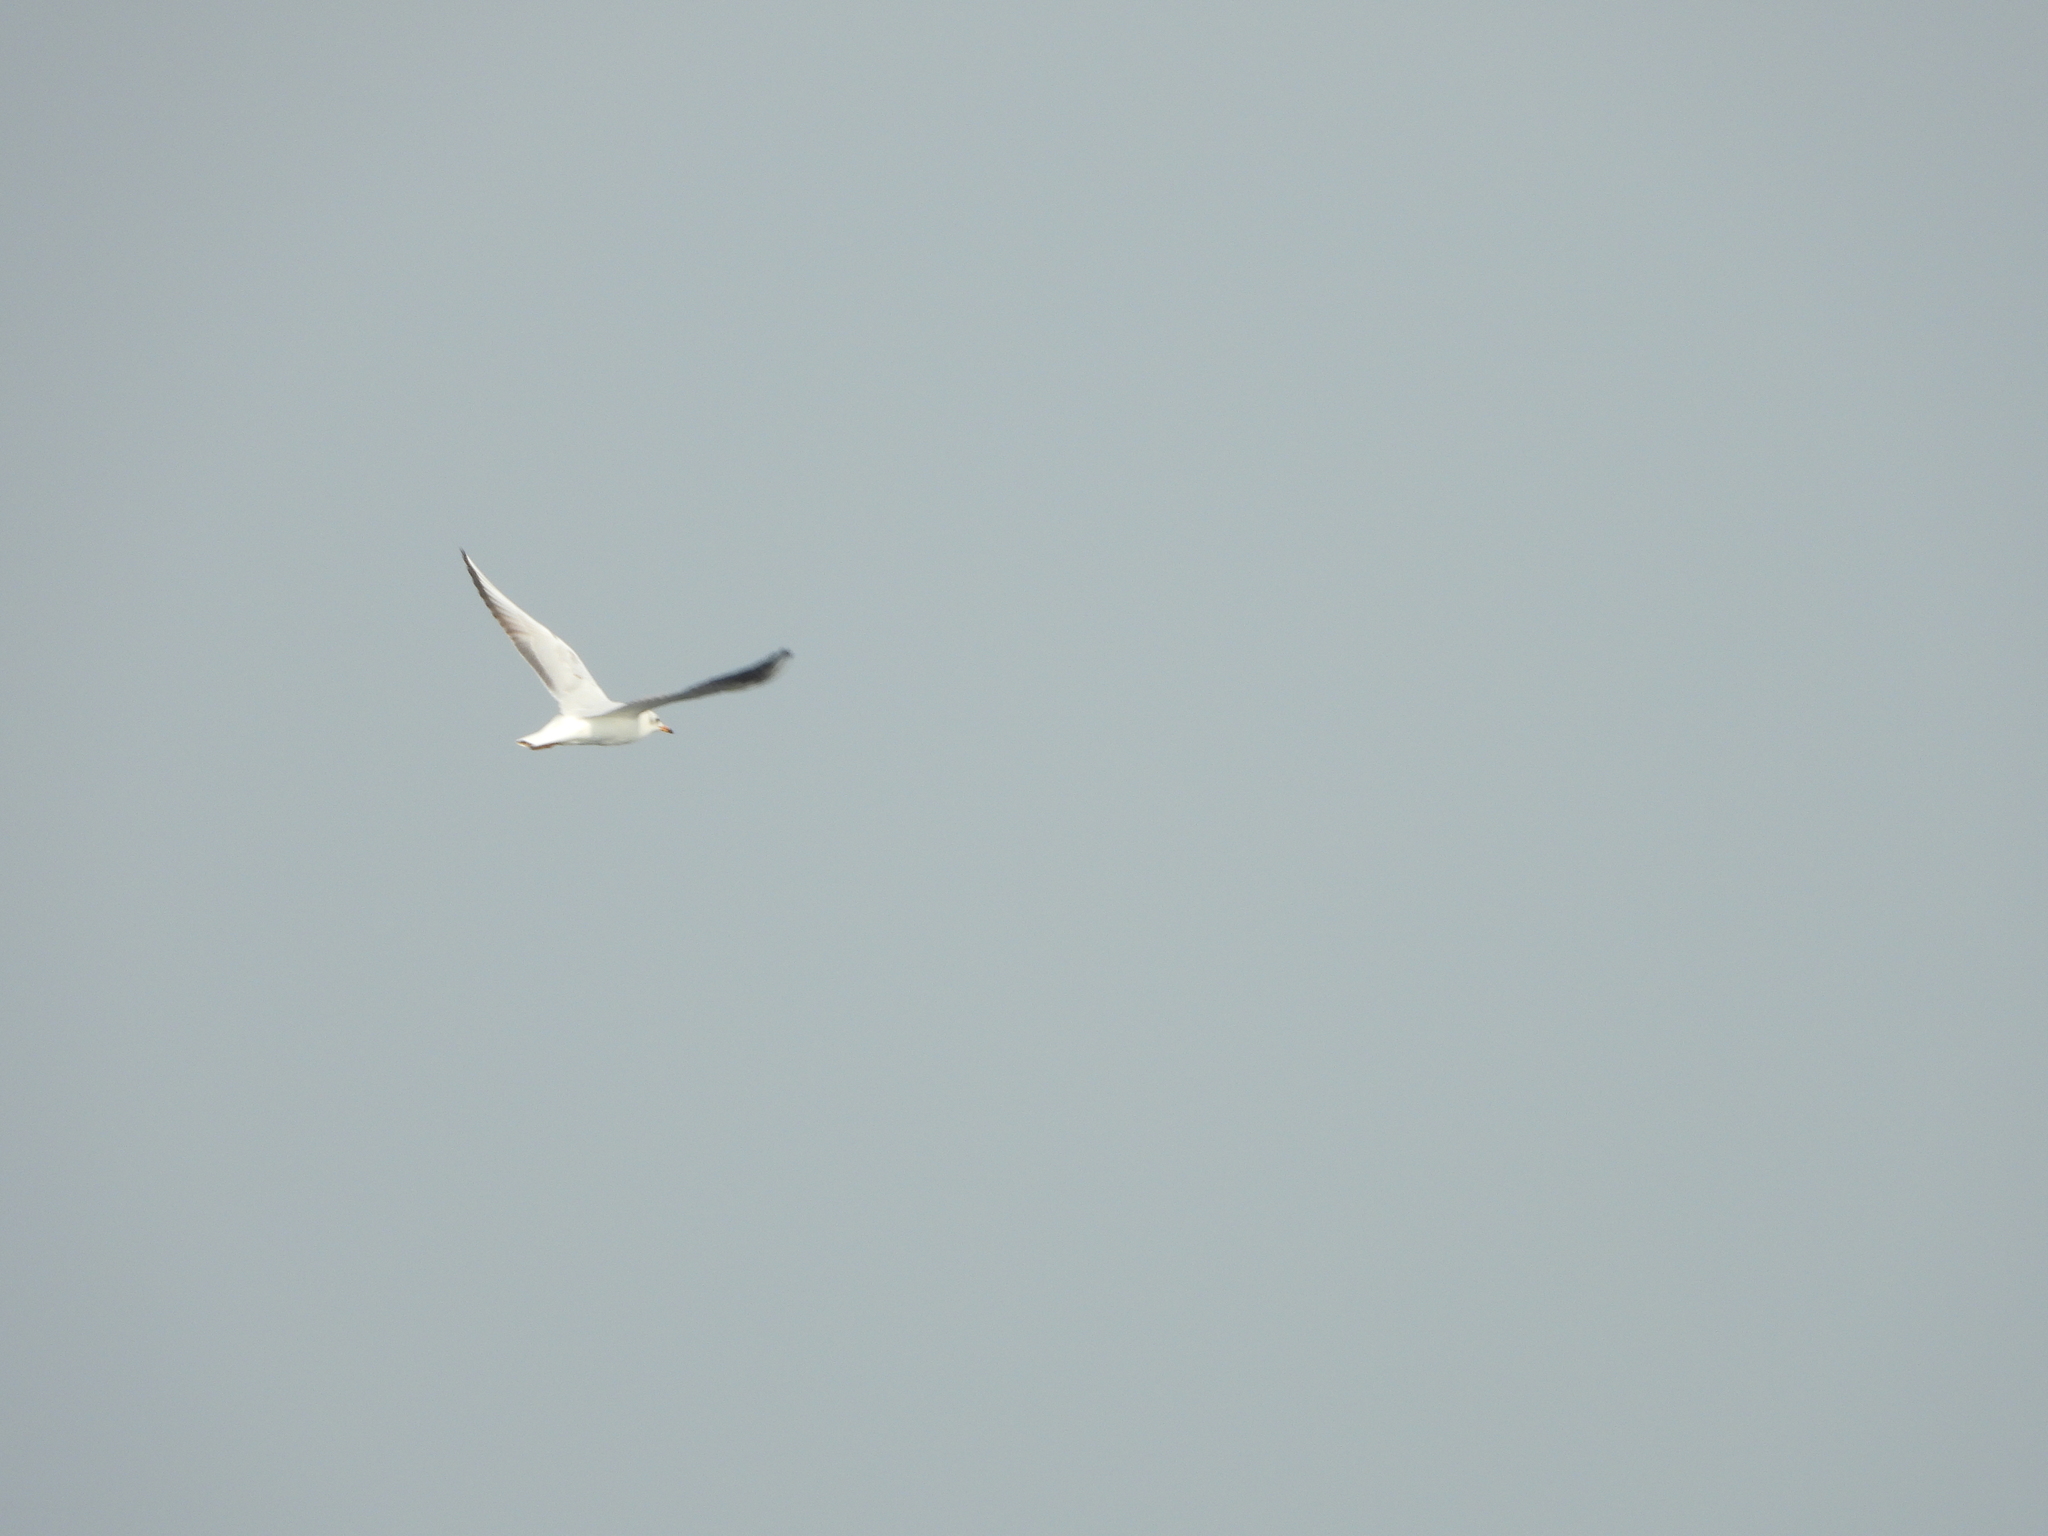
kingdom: Animalia
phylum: Chordata
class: Aves
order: Charadriiformes
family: Laridae
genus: Chroicocephalus
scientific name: Chroicocephalus ridibundus
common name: Black-headed gull
